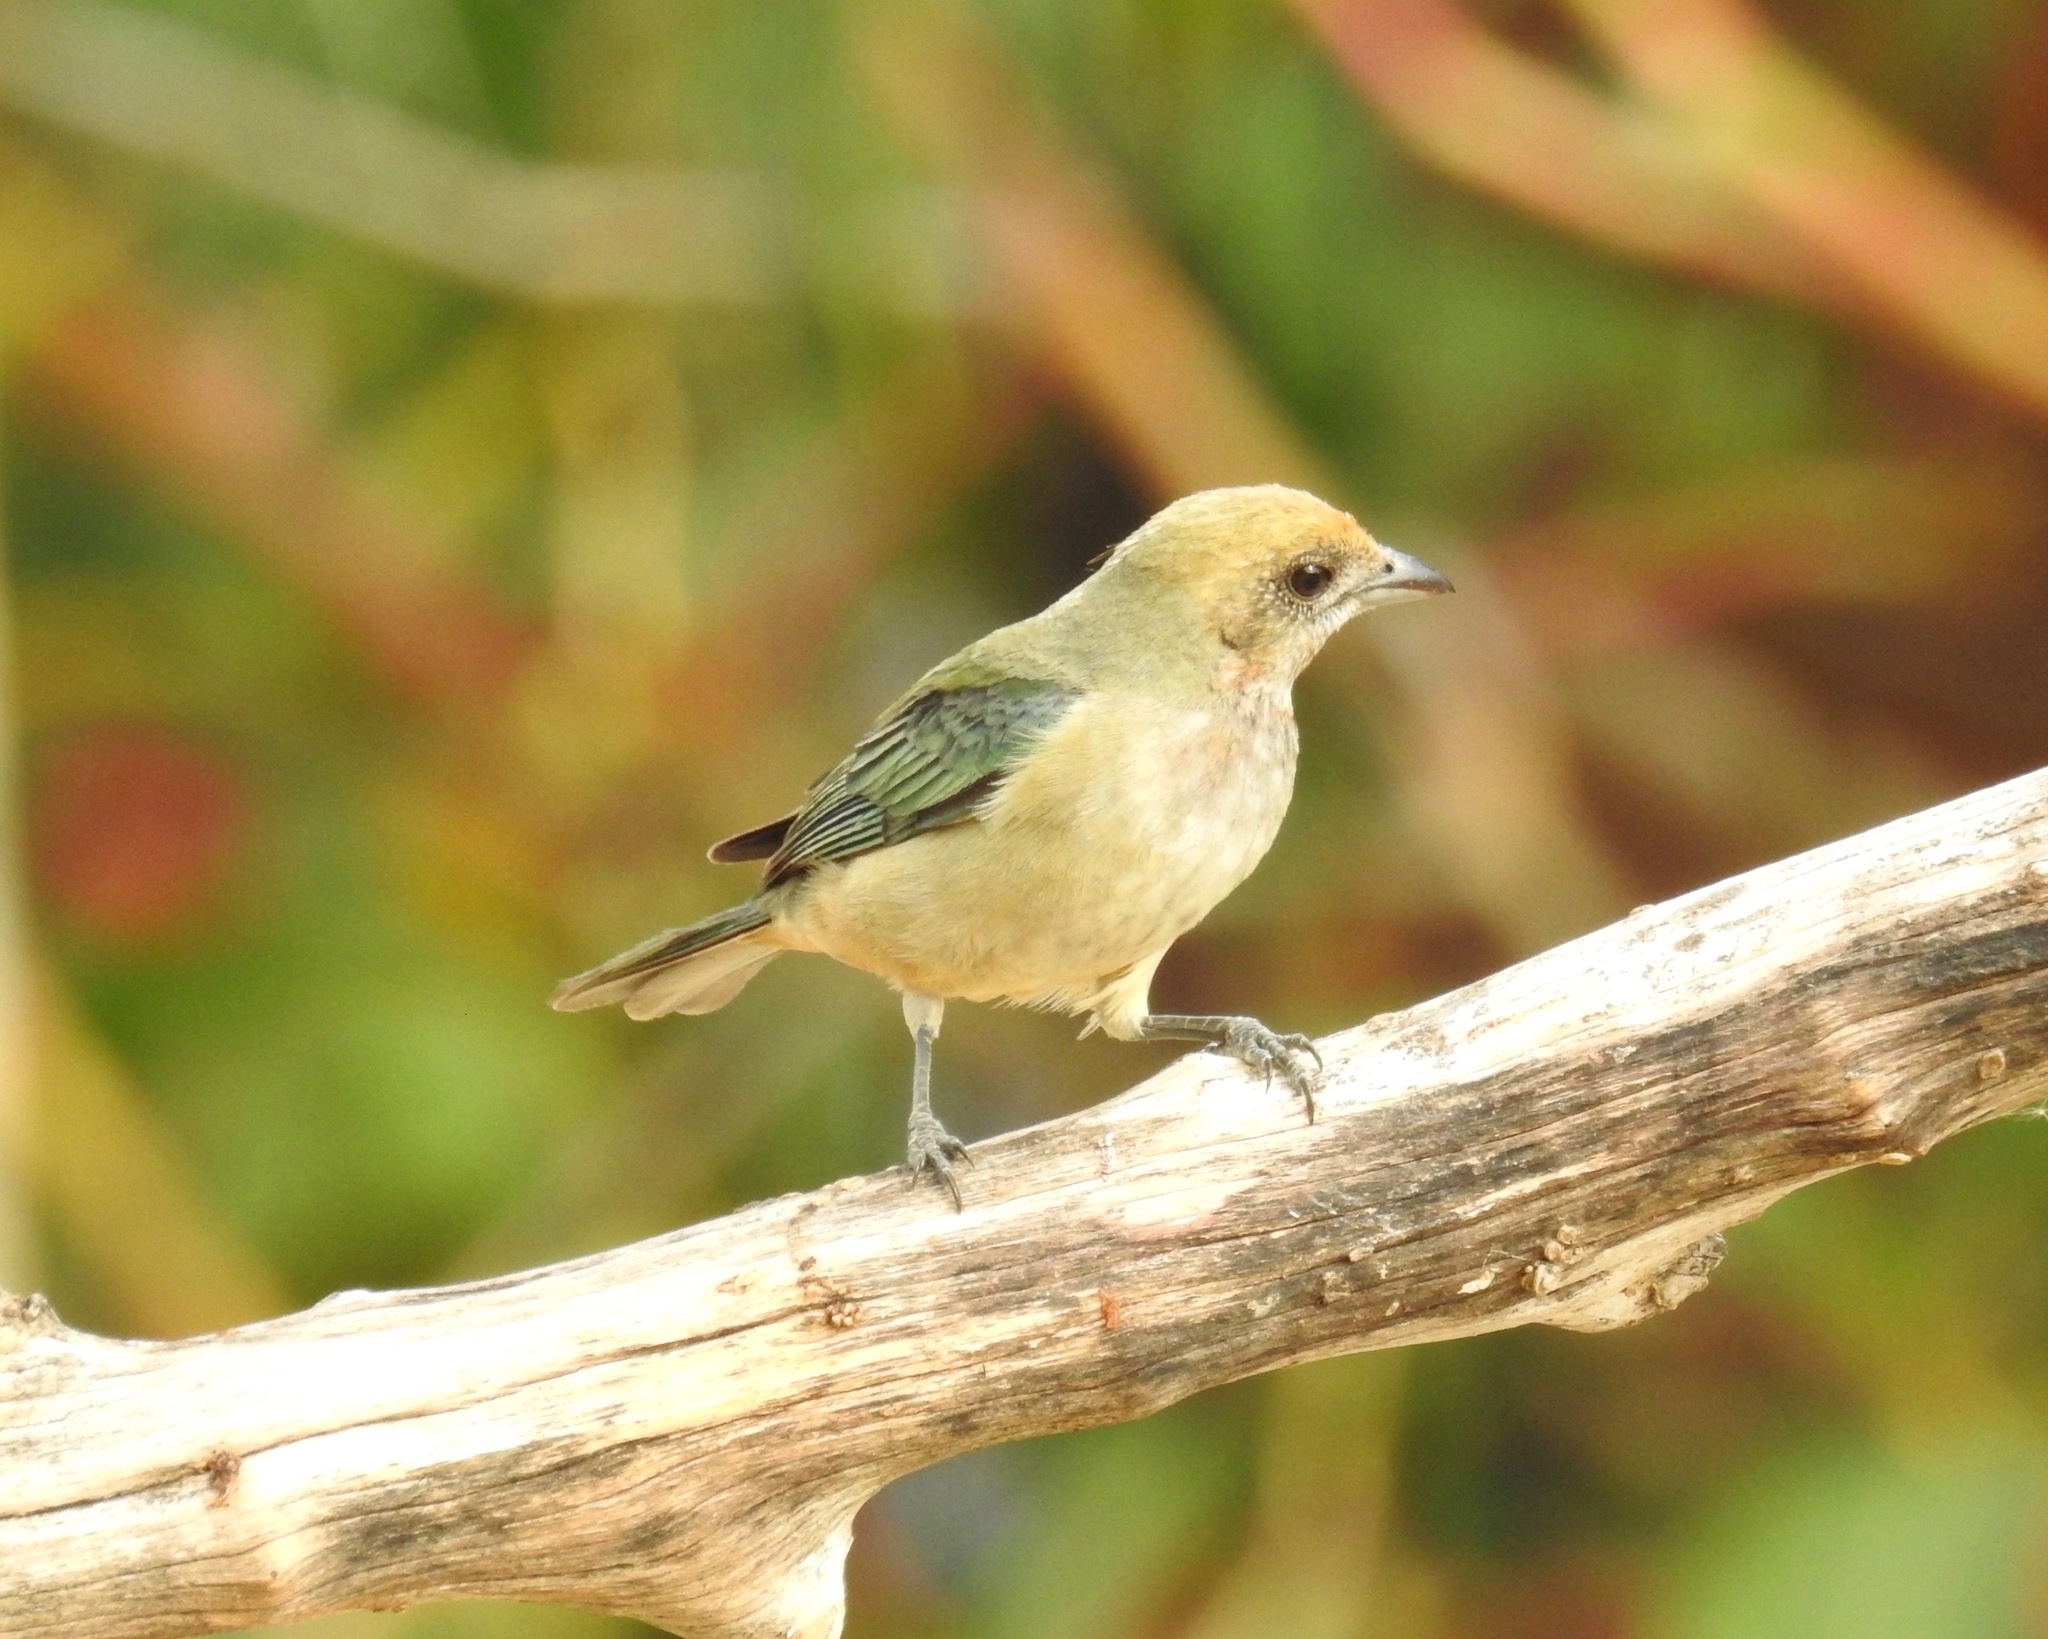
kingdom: Animalia
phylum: Chordata
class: Aves
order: Passeriformes
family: Thraupidae
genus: Stilpnia
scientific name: Stilpnia cayana
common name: Burnished-buff tanager
